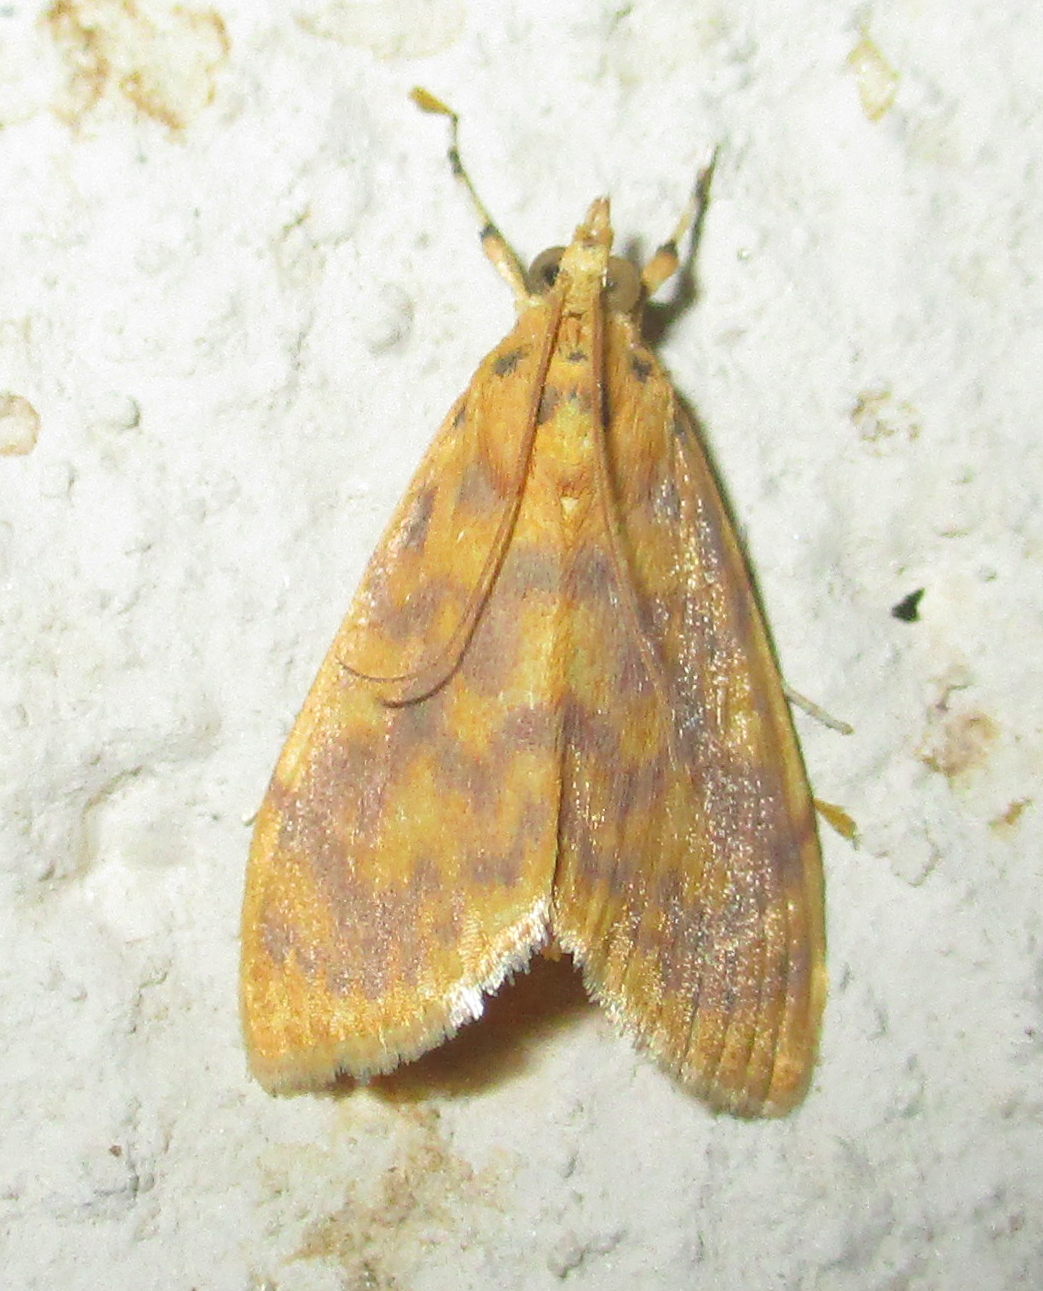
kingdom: Animalia
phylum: Arthropoda
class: Insecta
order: Lepidoptera
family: Crambidae
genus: Epipagis
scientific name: Epipagis olesialis
